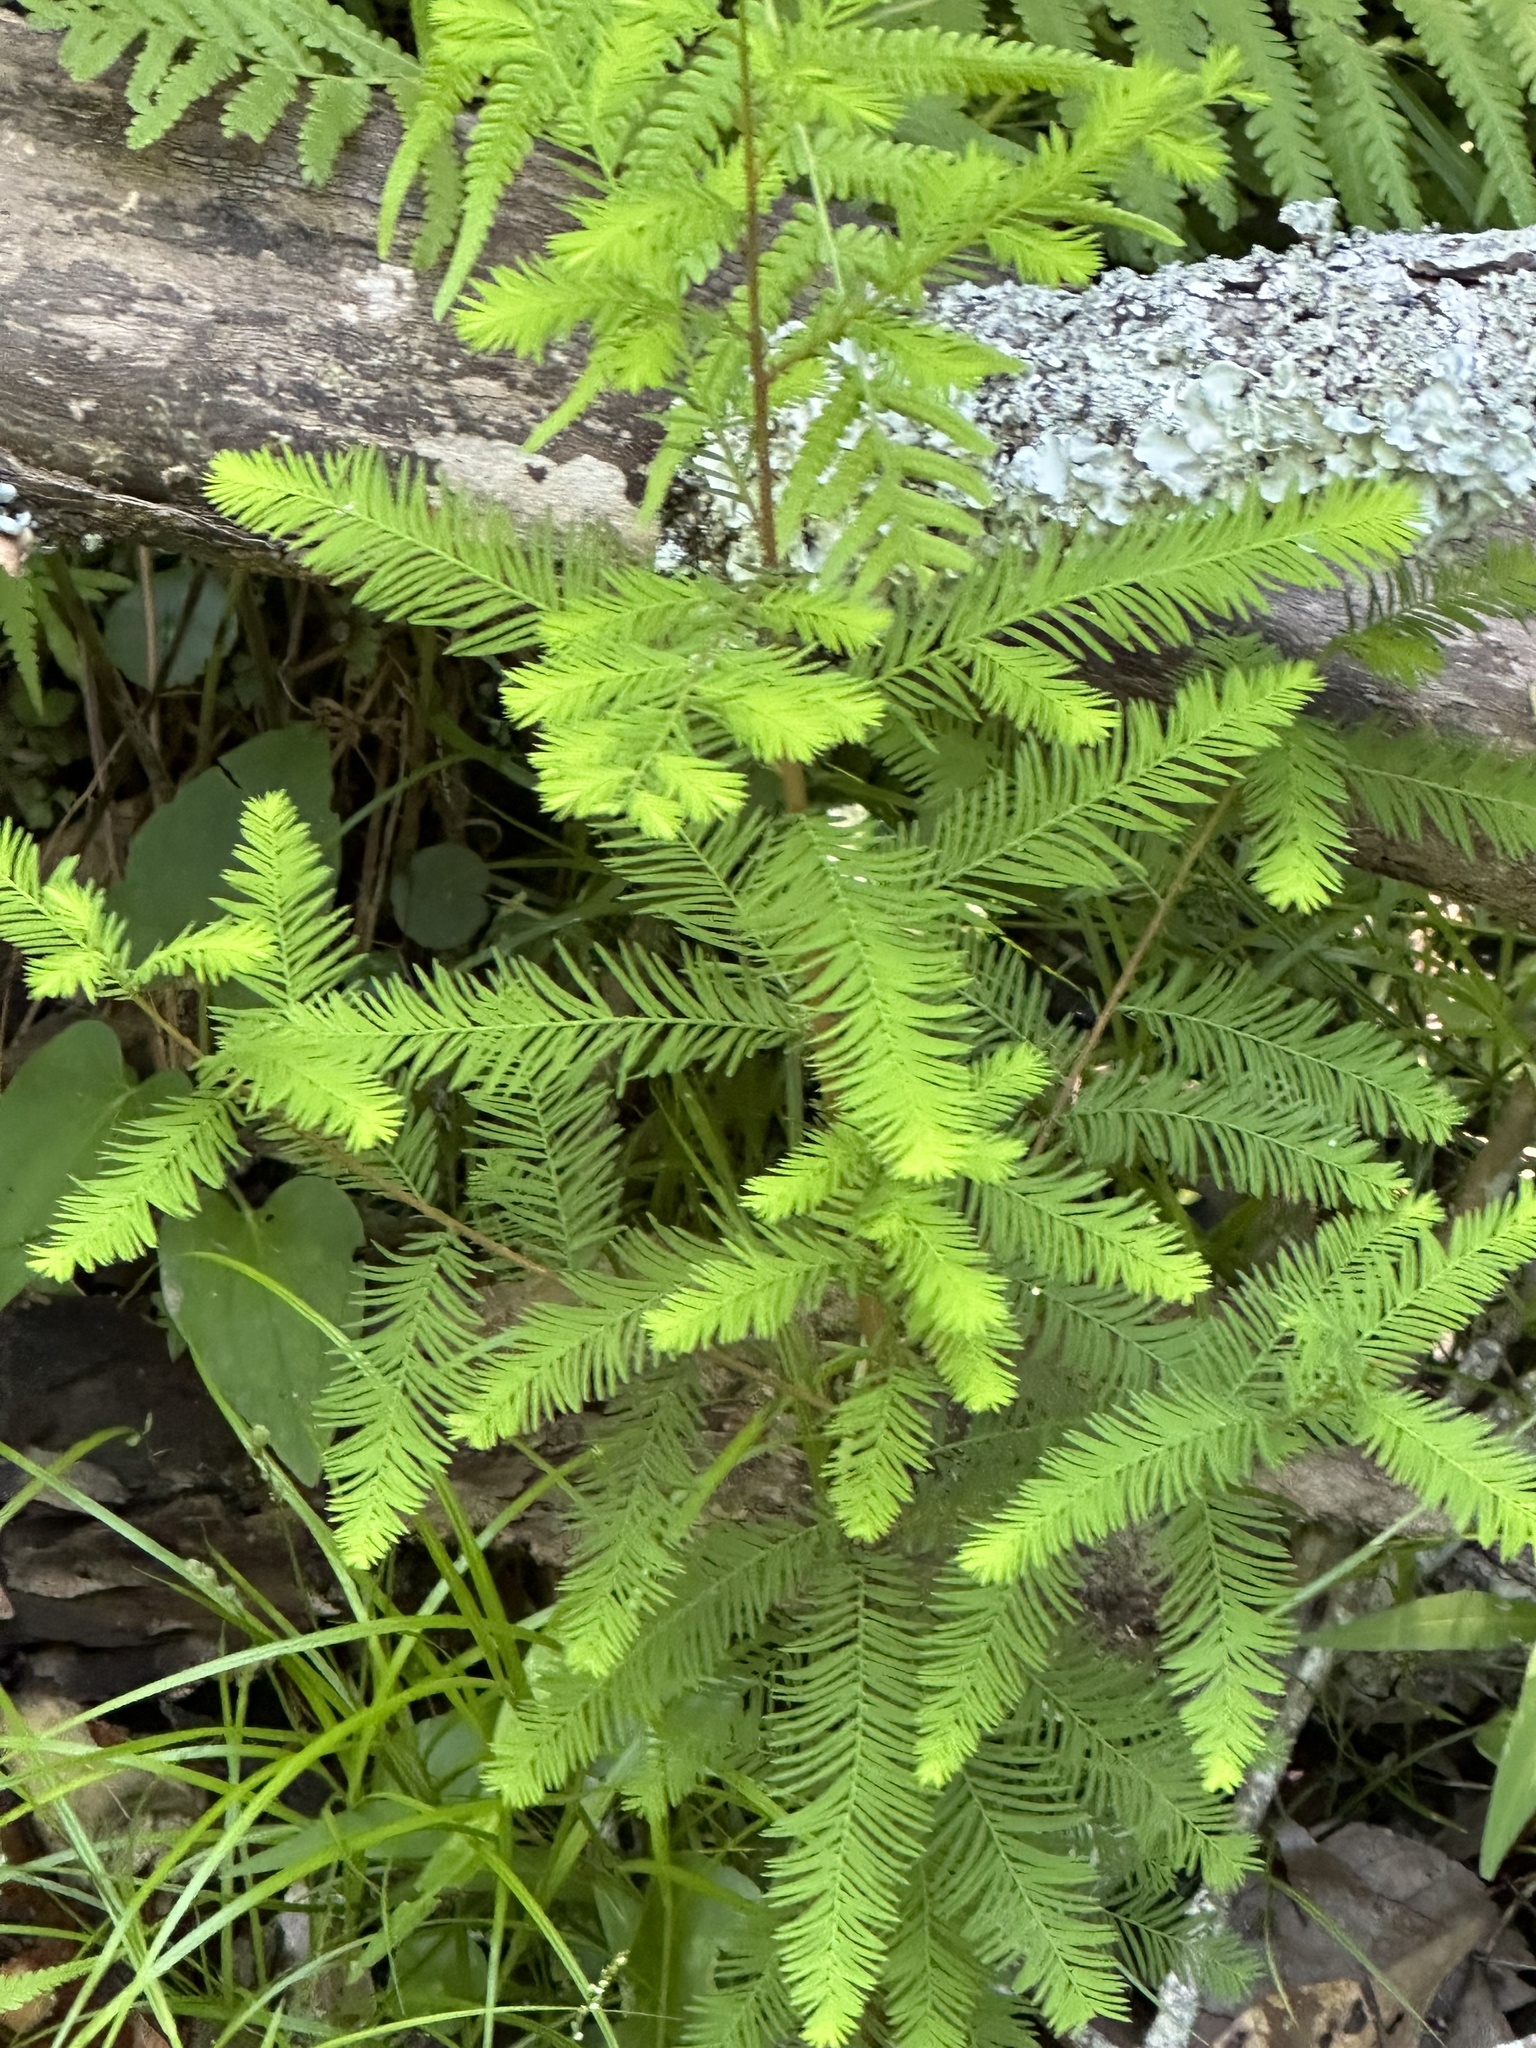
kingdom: Plantae
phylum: Tracheophyta
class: Pinopsida
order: Pinales
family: Cupressaceae
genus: Taxodium
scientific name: Taxodium distichum
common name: Bald cypress
